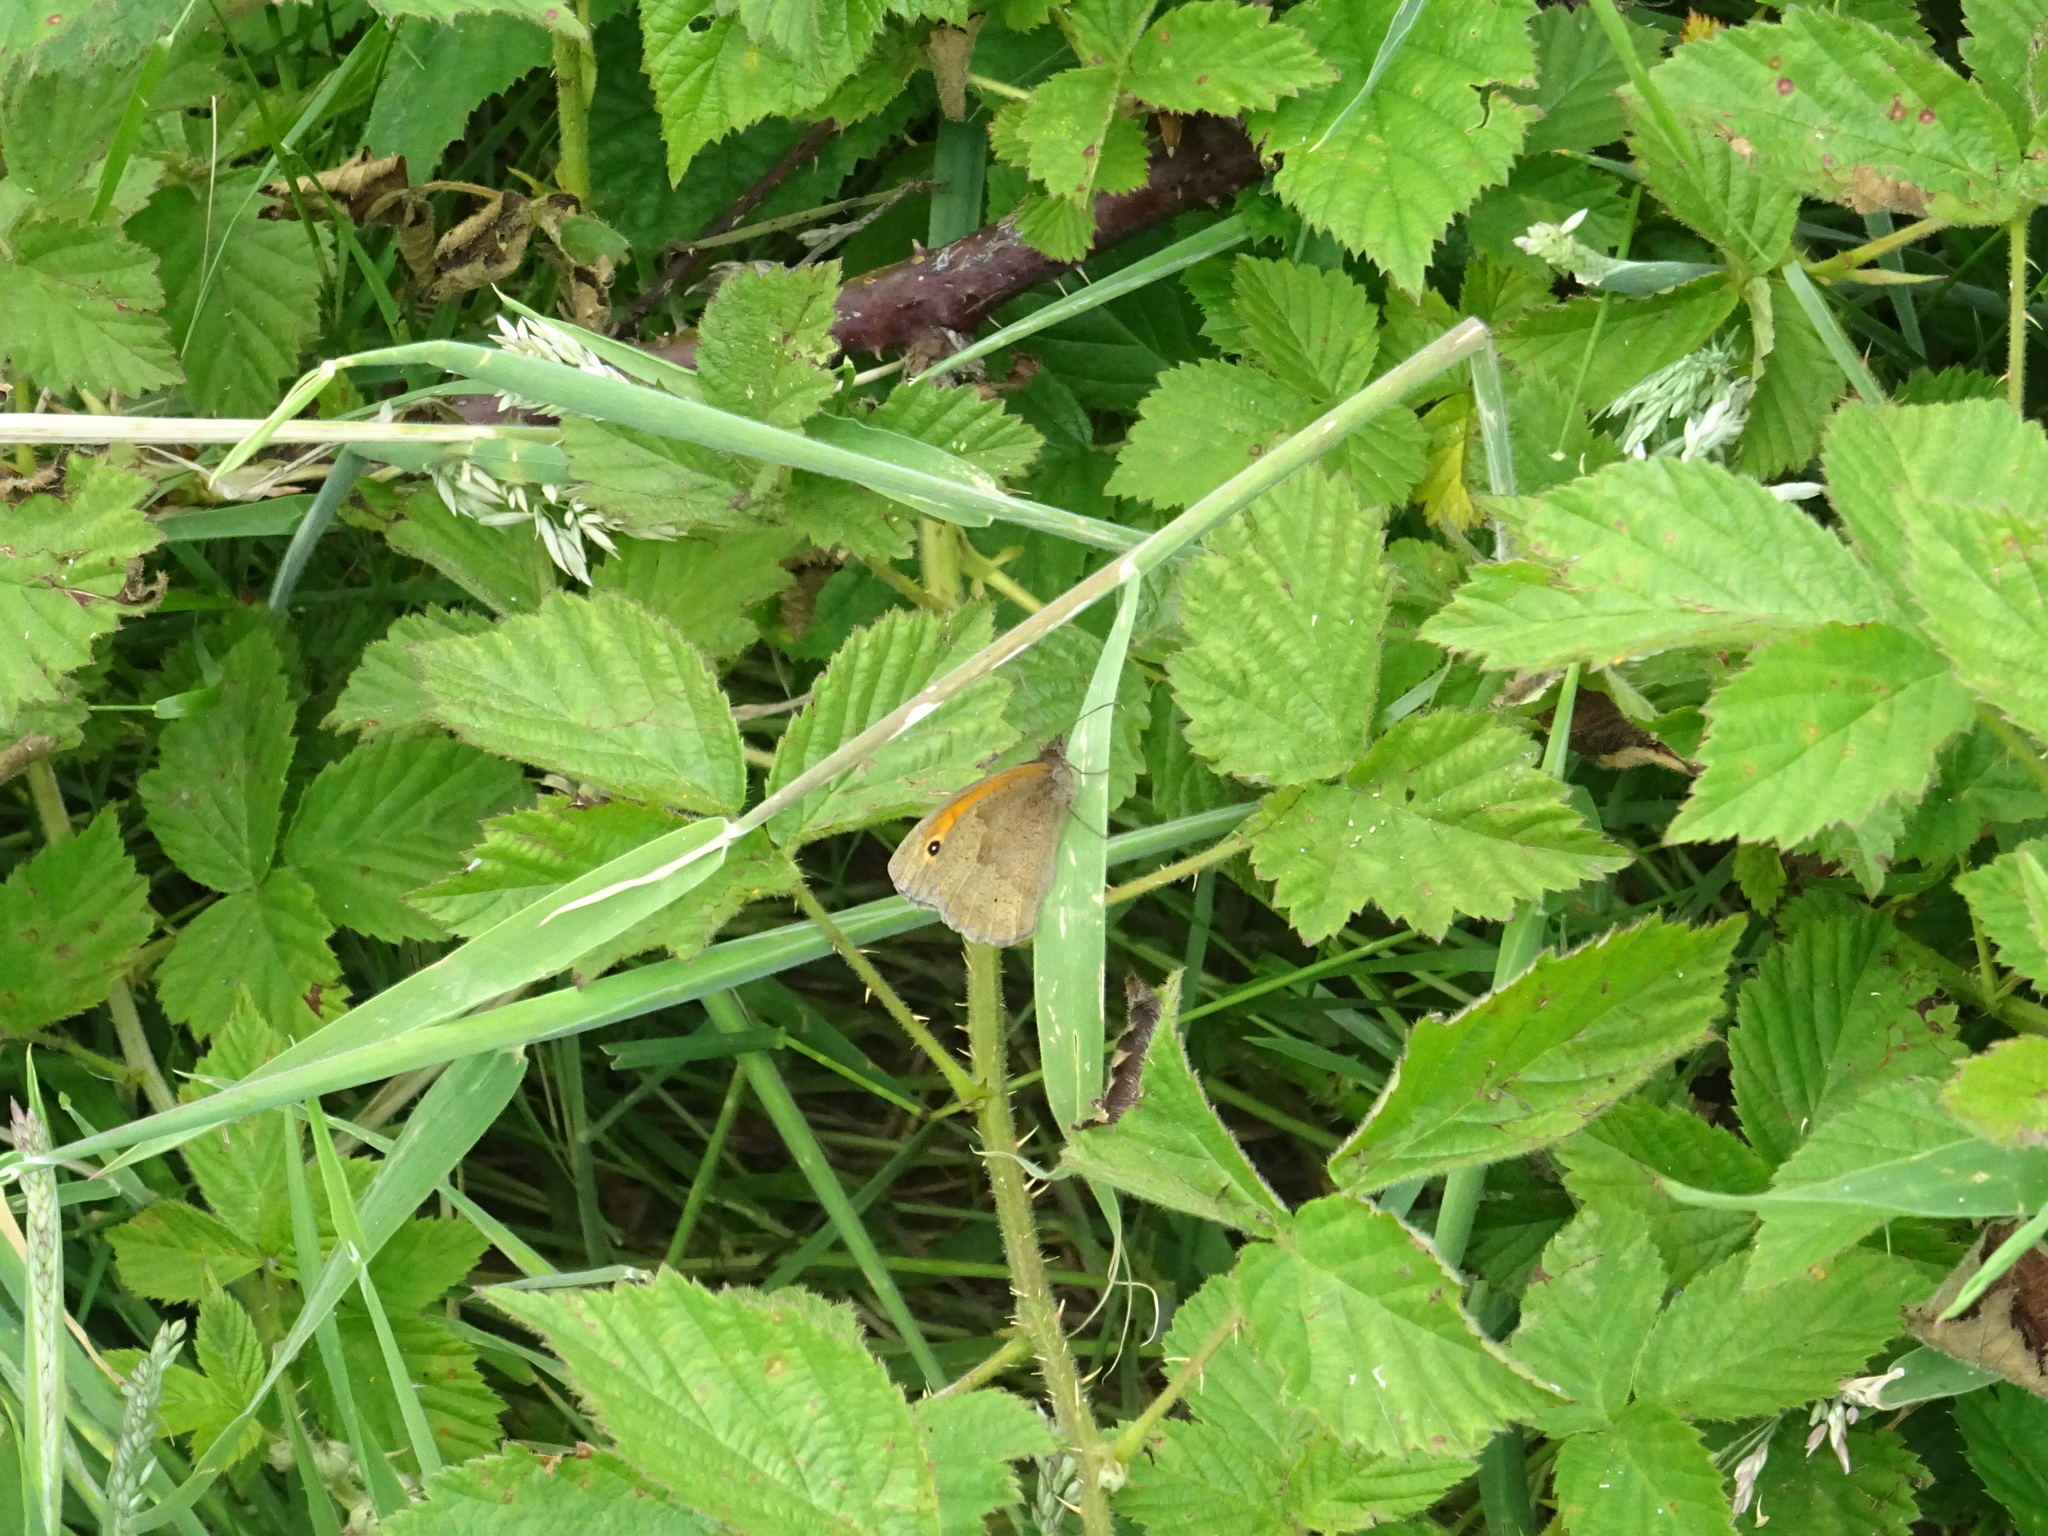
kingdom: Animalia
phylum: Arthropoda
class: Insecta
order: Lepidoptera
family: Nymphalidae
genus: Maniola
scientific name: Maniola jurtina
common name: Meadow brown
